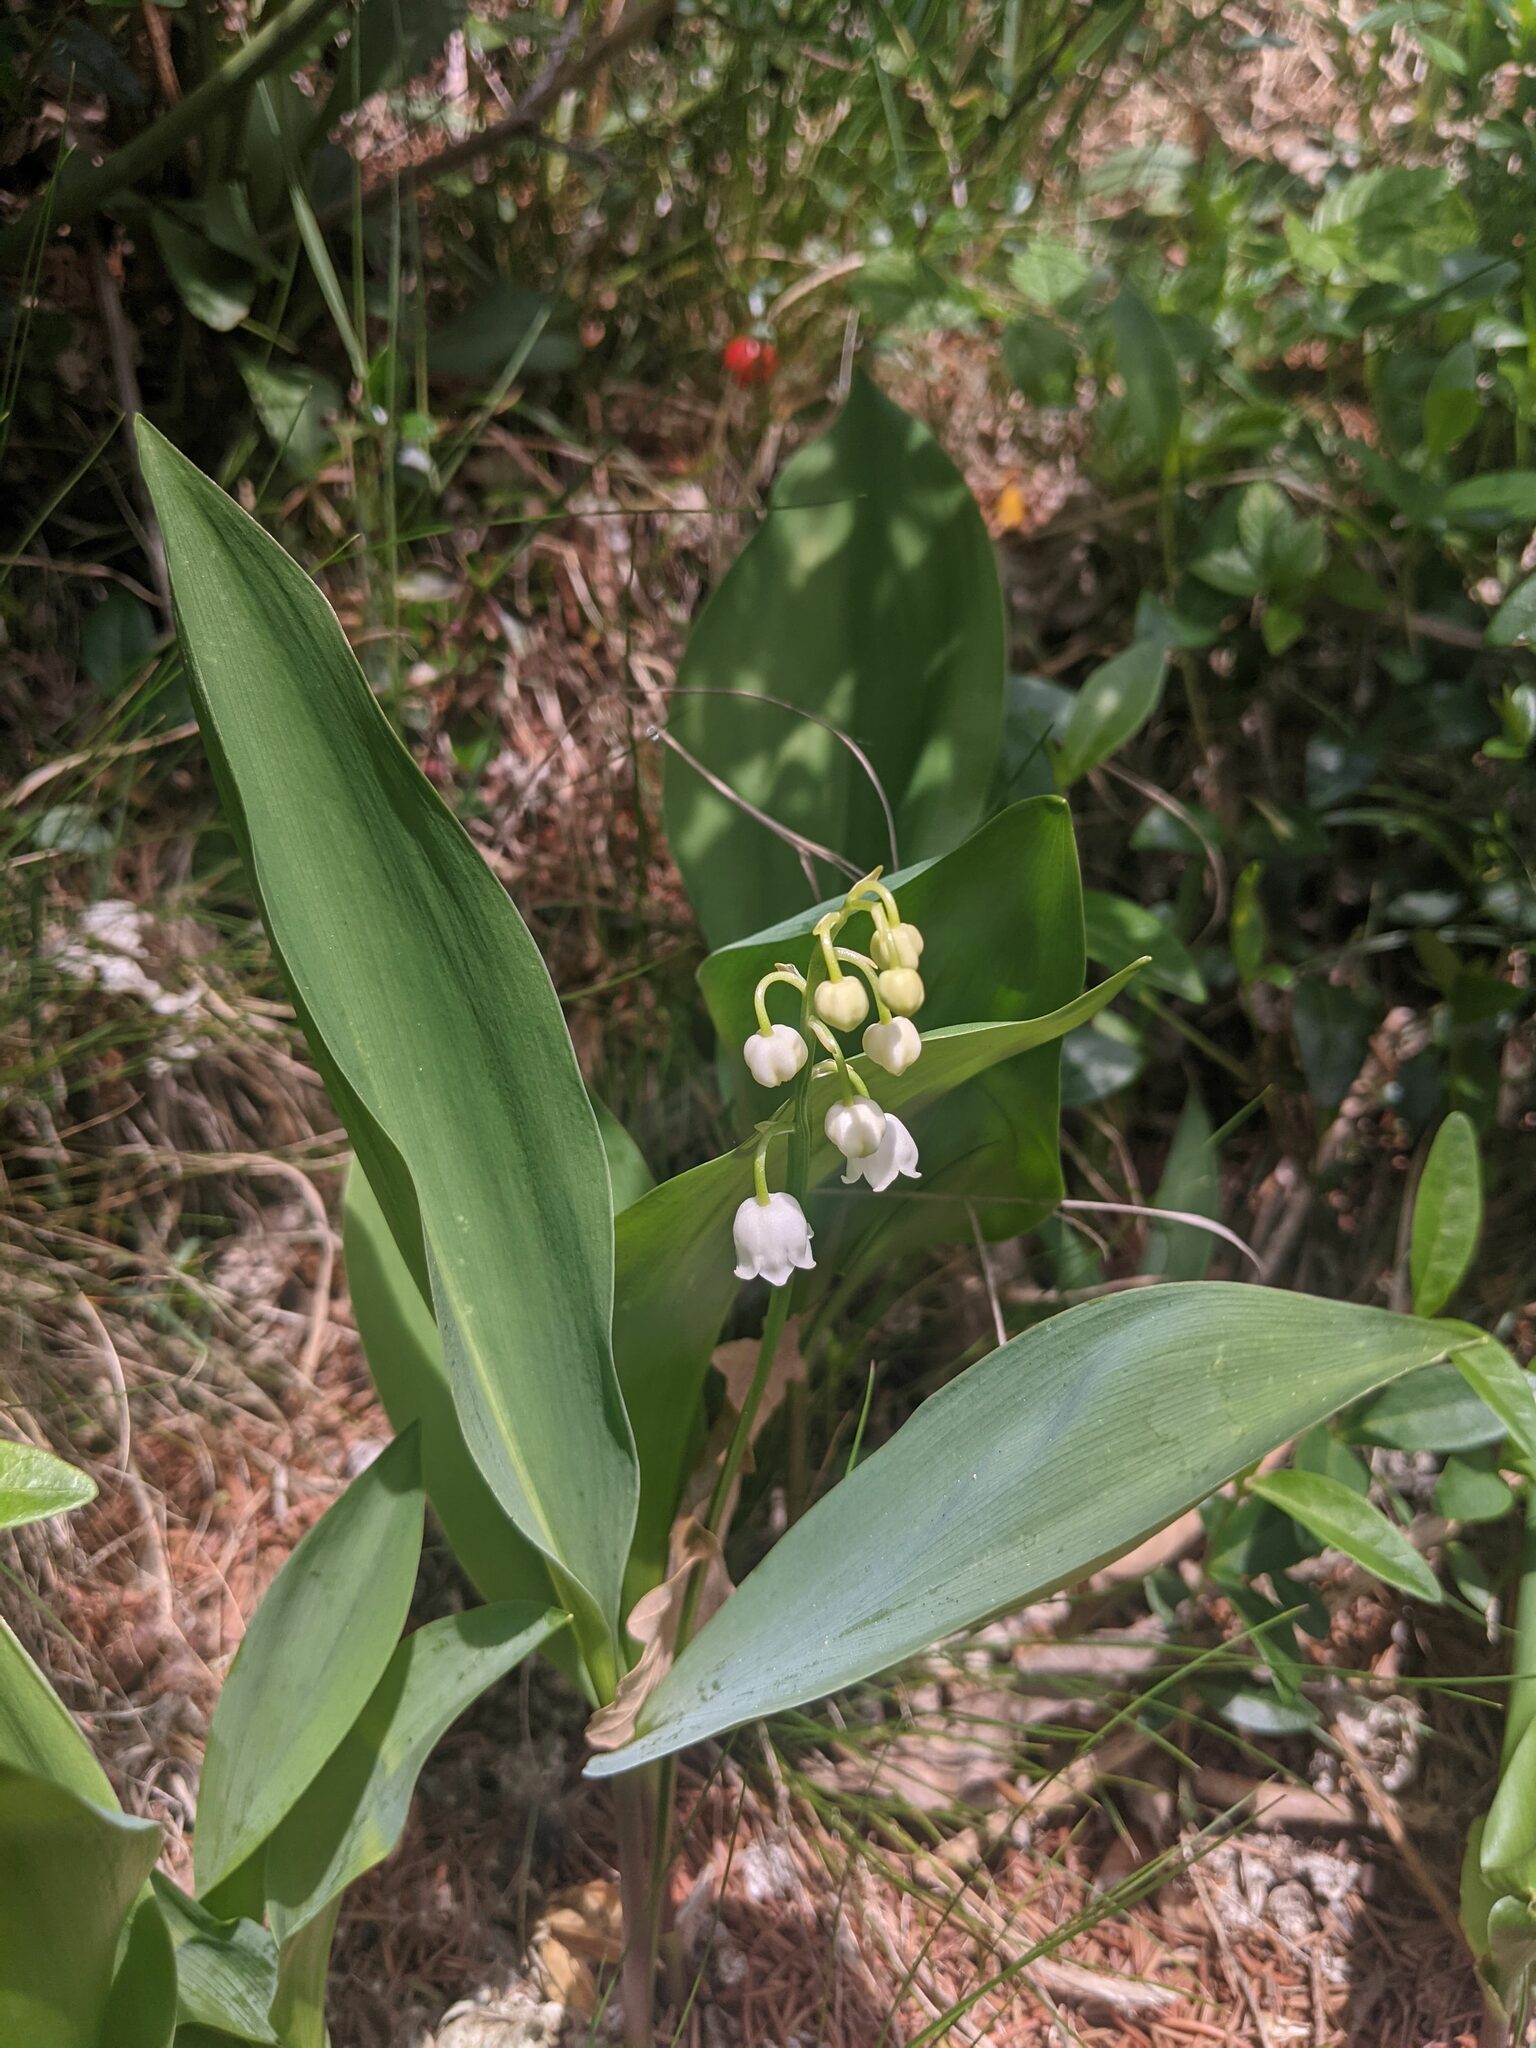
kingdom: Plantae
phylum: Tracheophyta
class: Liliopsida
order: Asparagales
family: Asparagaceae
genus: Convallaria
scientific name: Convallaria majalis
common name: Lily-of-the-valley
